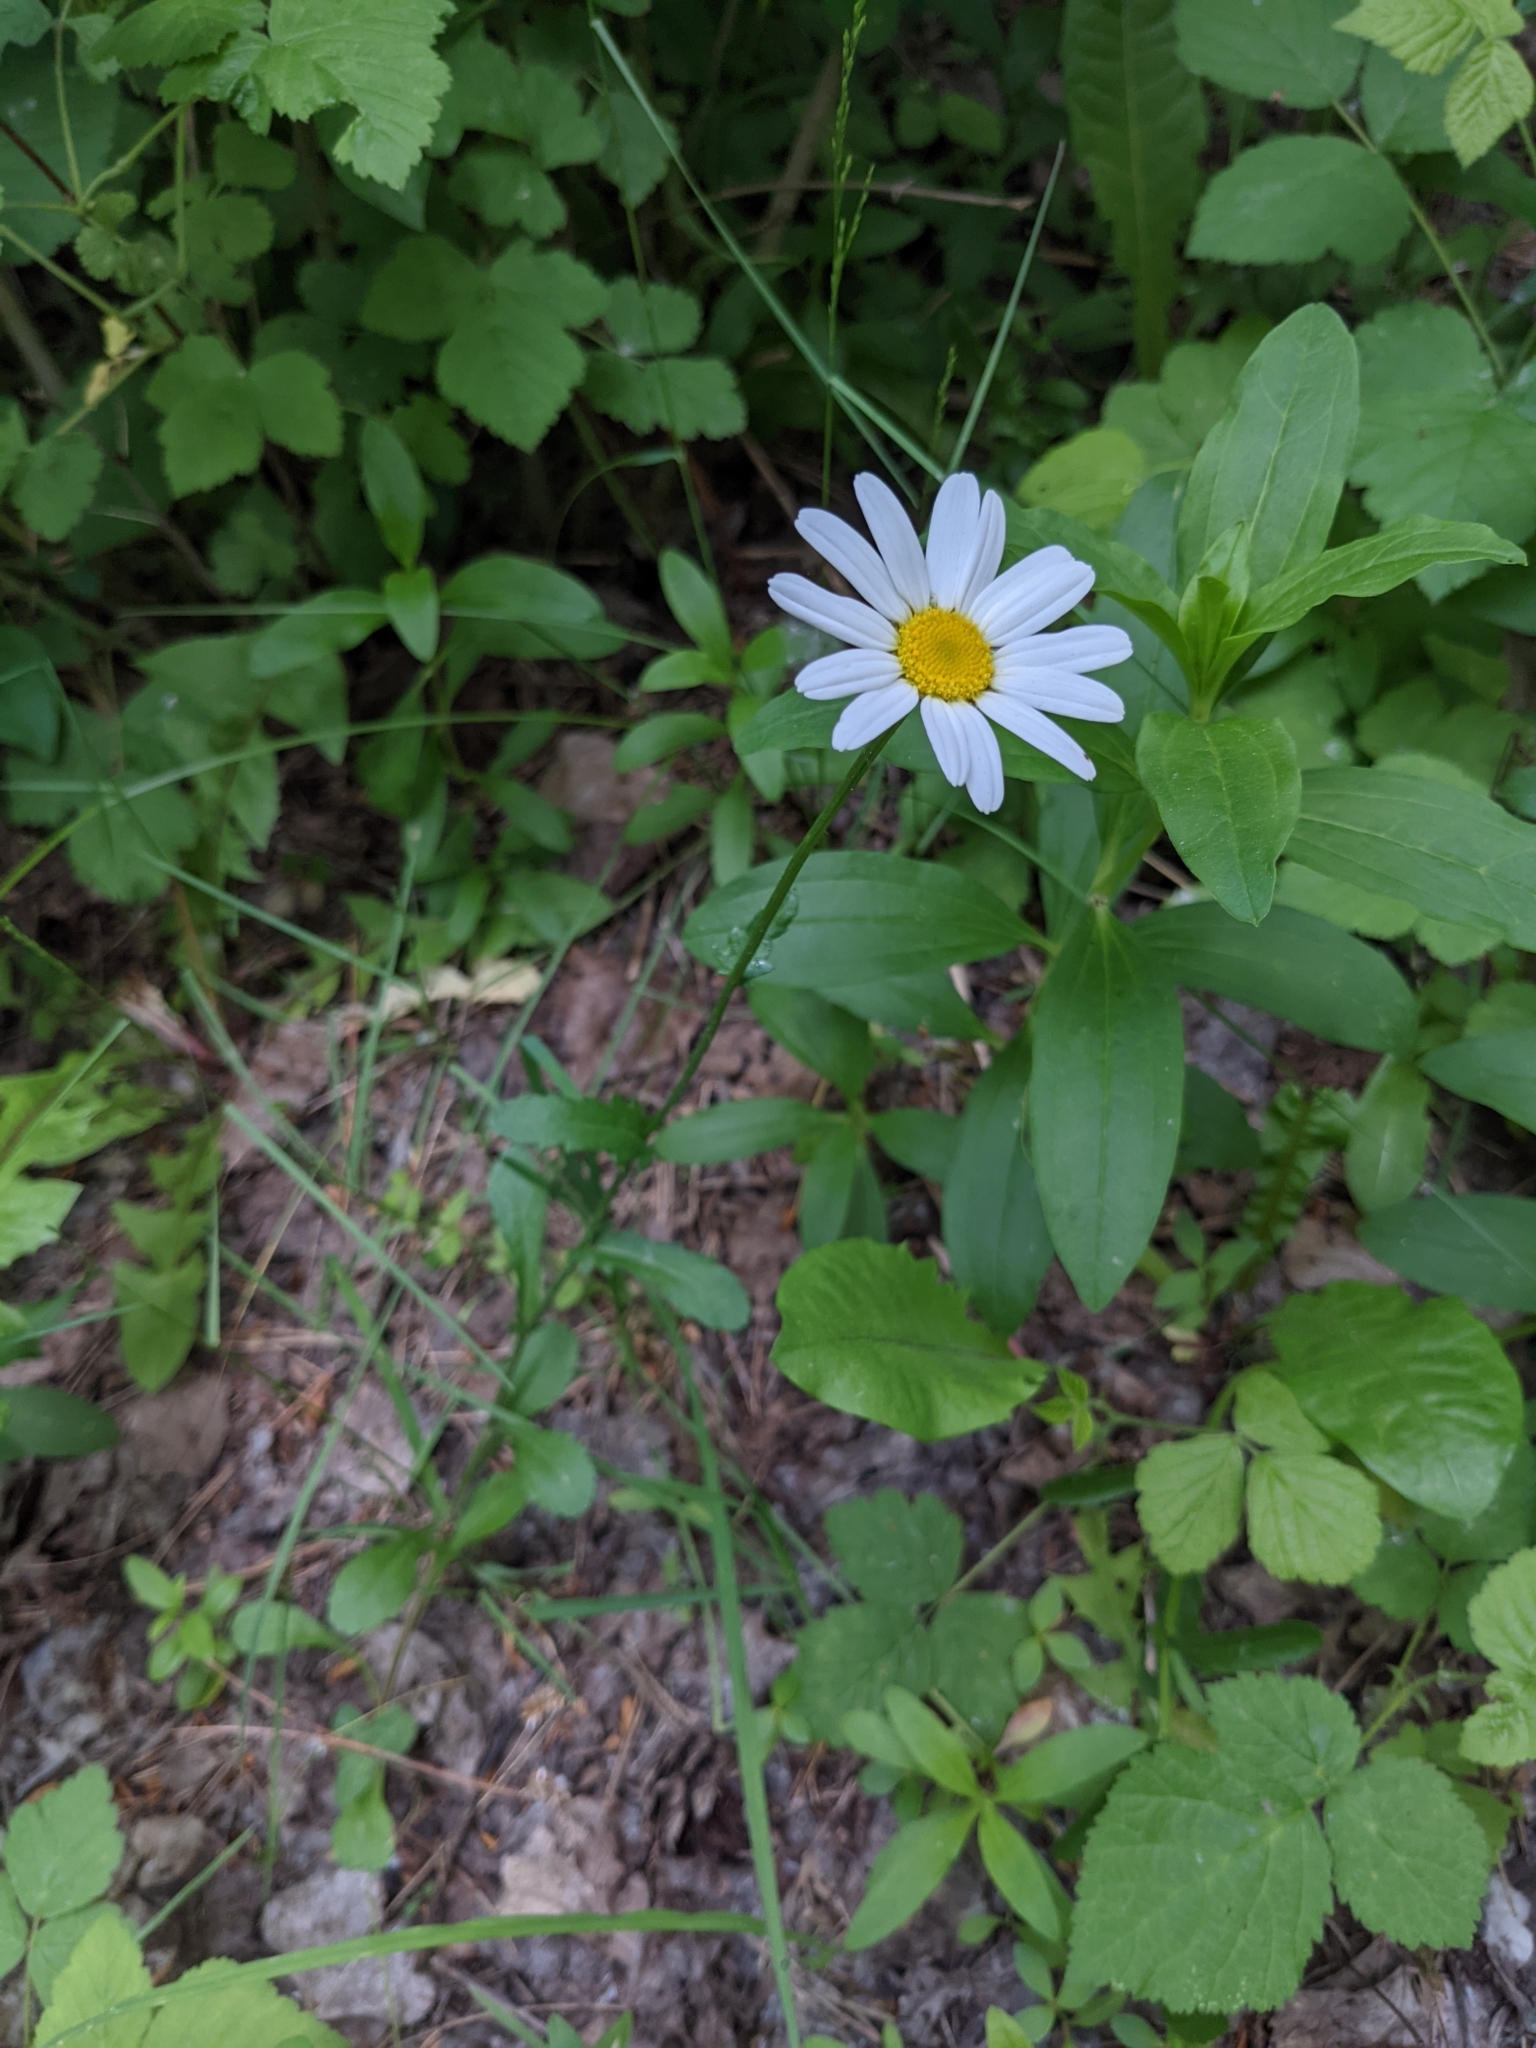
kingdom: Plantae
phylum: Tracheophyta
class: Magnoliopsida
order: Asterales
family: Asteraceae
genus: Leucanthemum
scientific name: Leucanthemum vulgare
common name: Oxeye daisy
